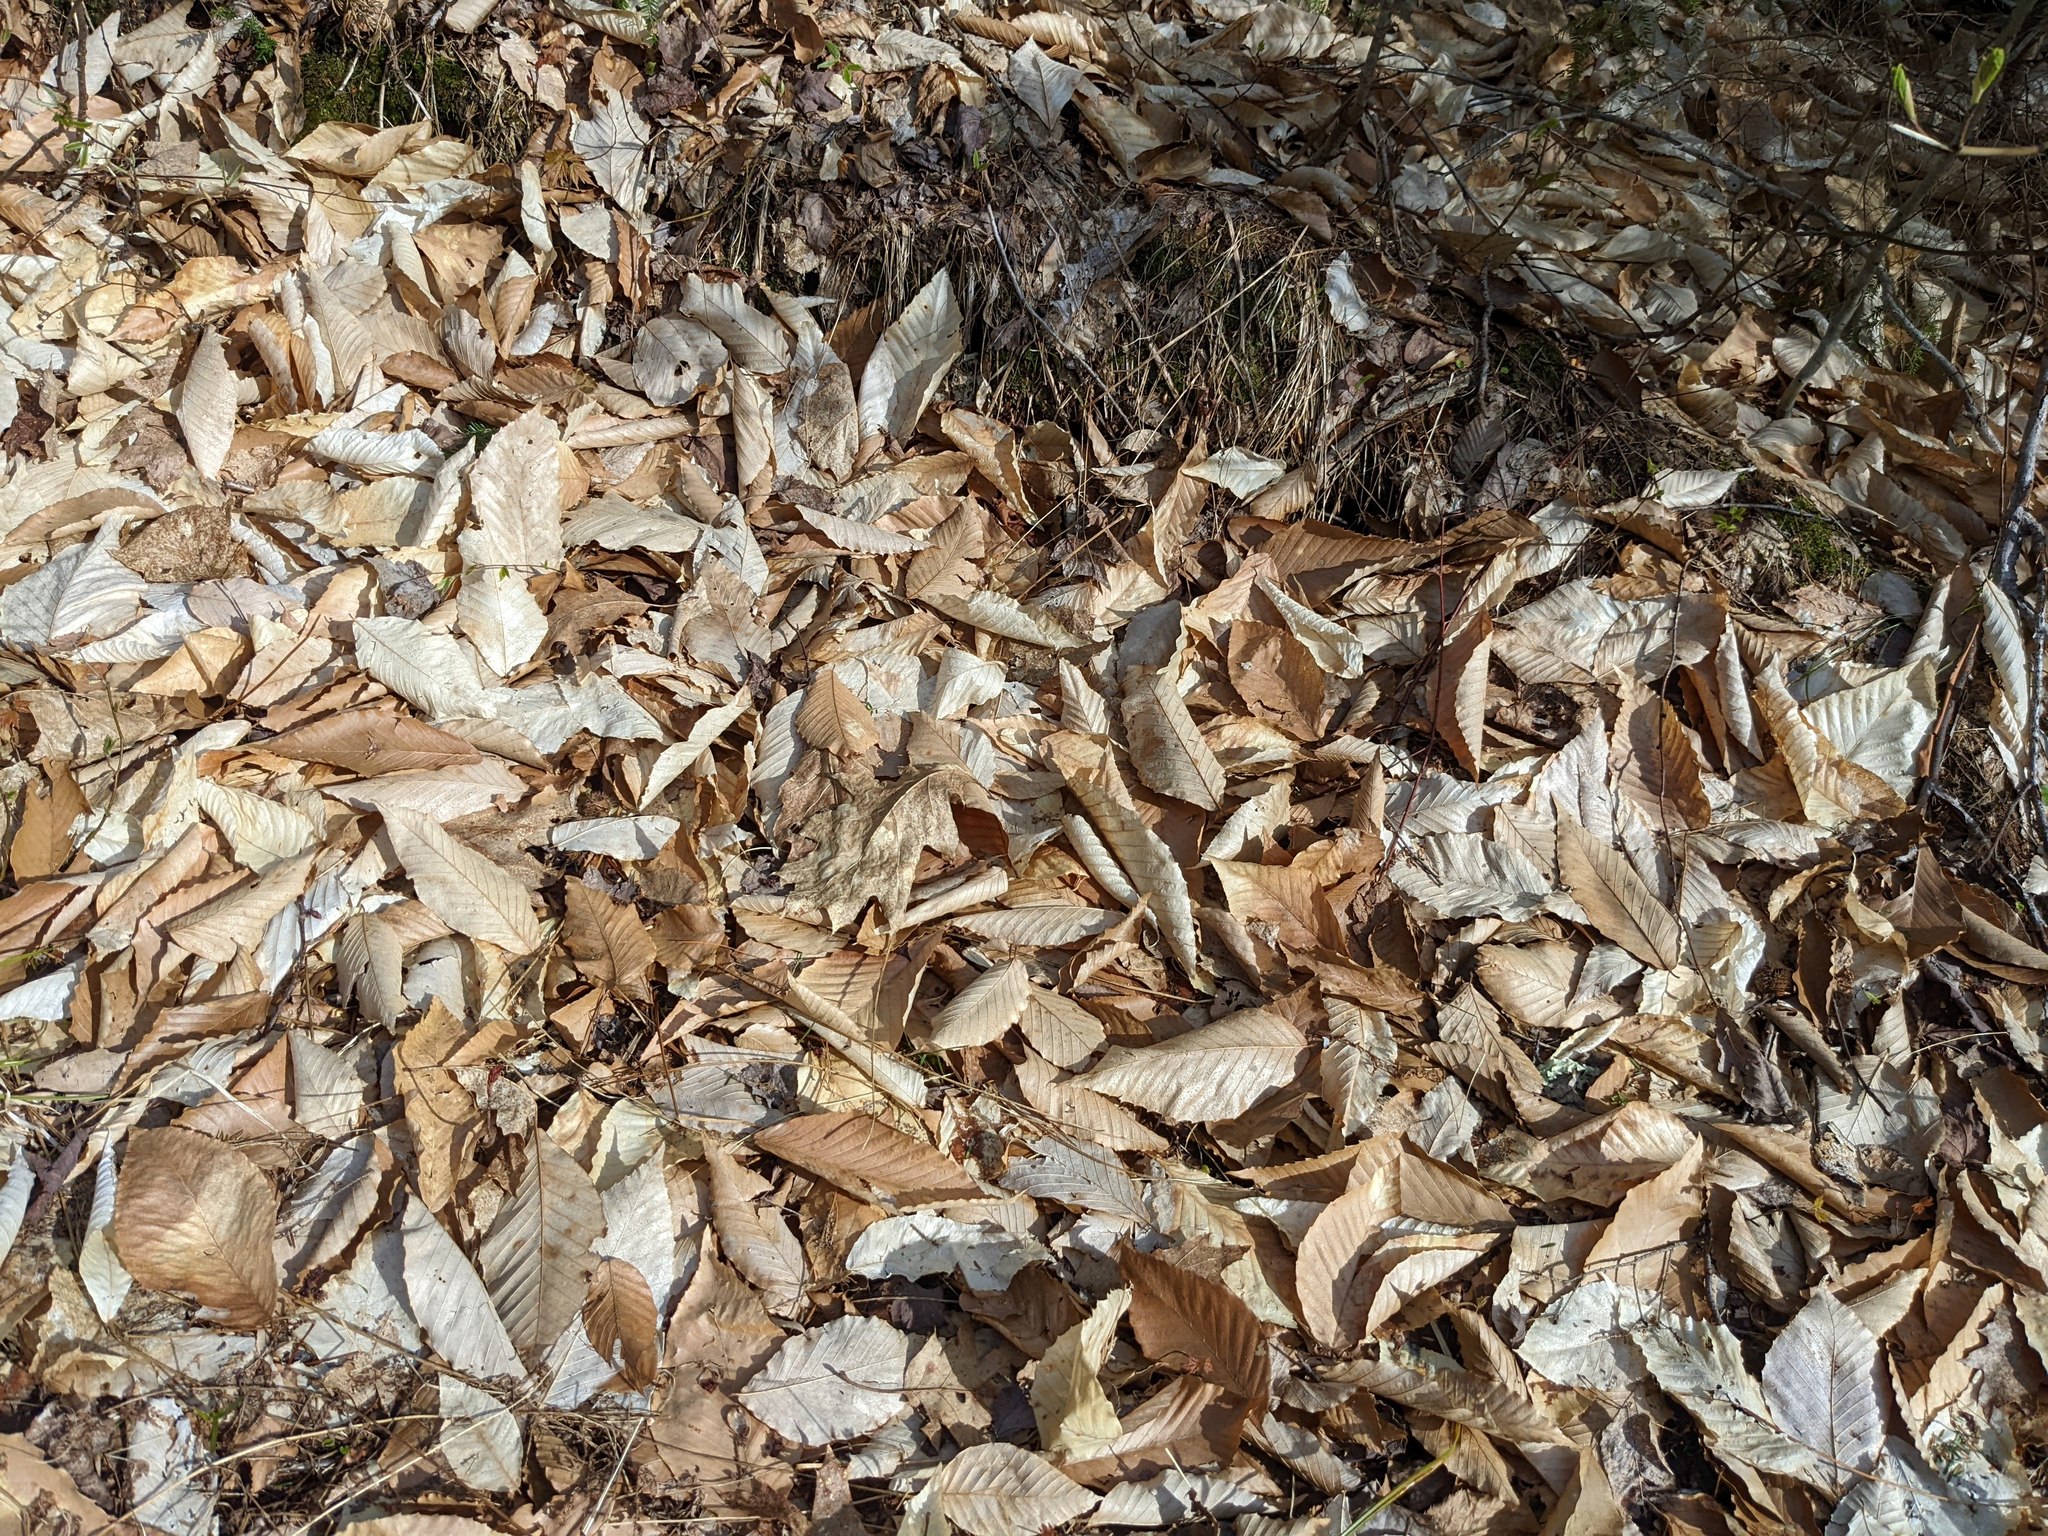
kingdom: Plantae
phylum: Tracheophyta
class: Magnoliopsida
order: Fagales
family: Fagaceae
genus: Fagus
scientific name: Fagus grandifolia
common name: American beech
